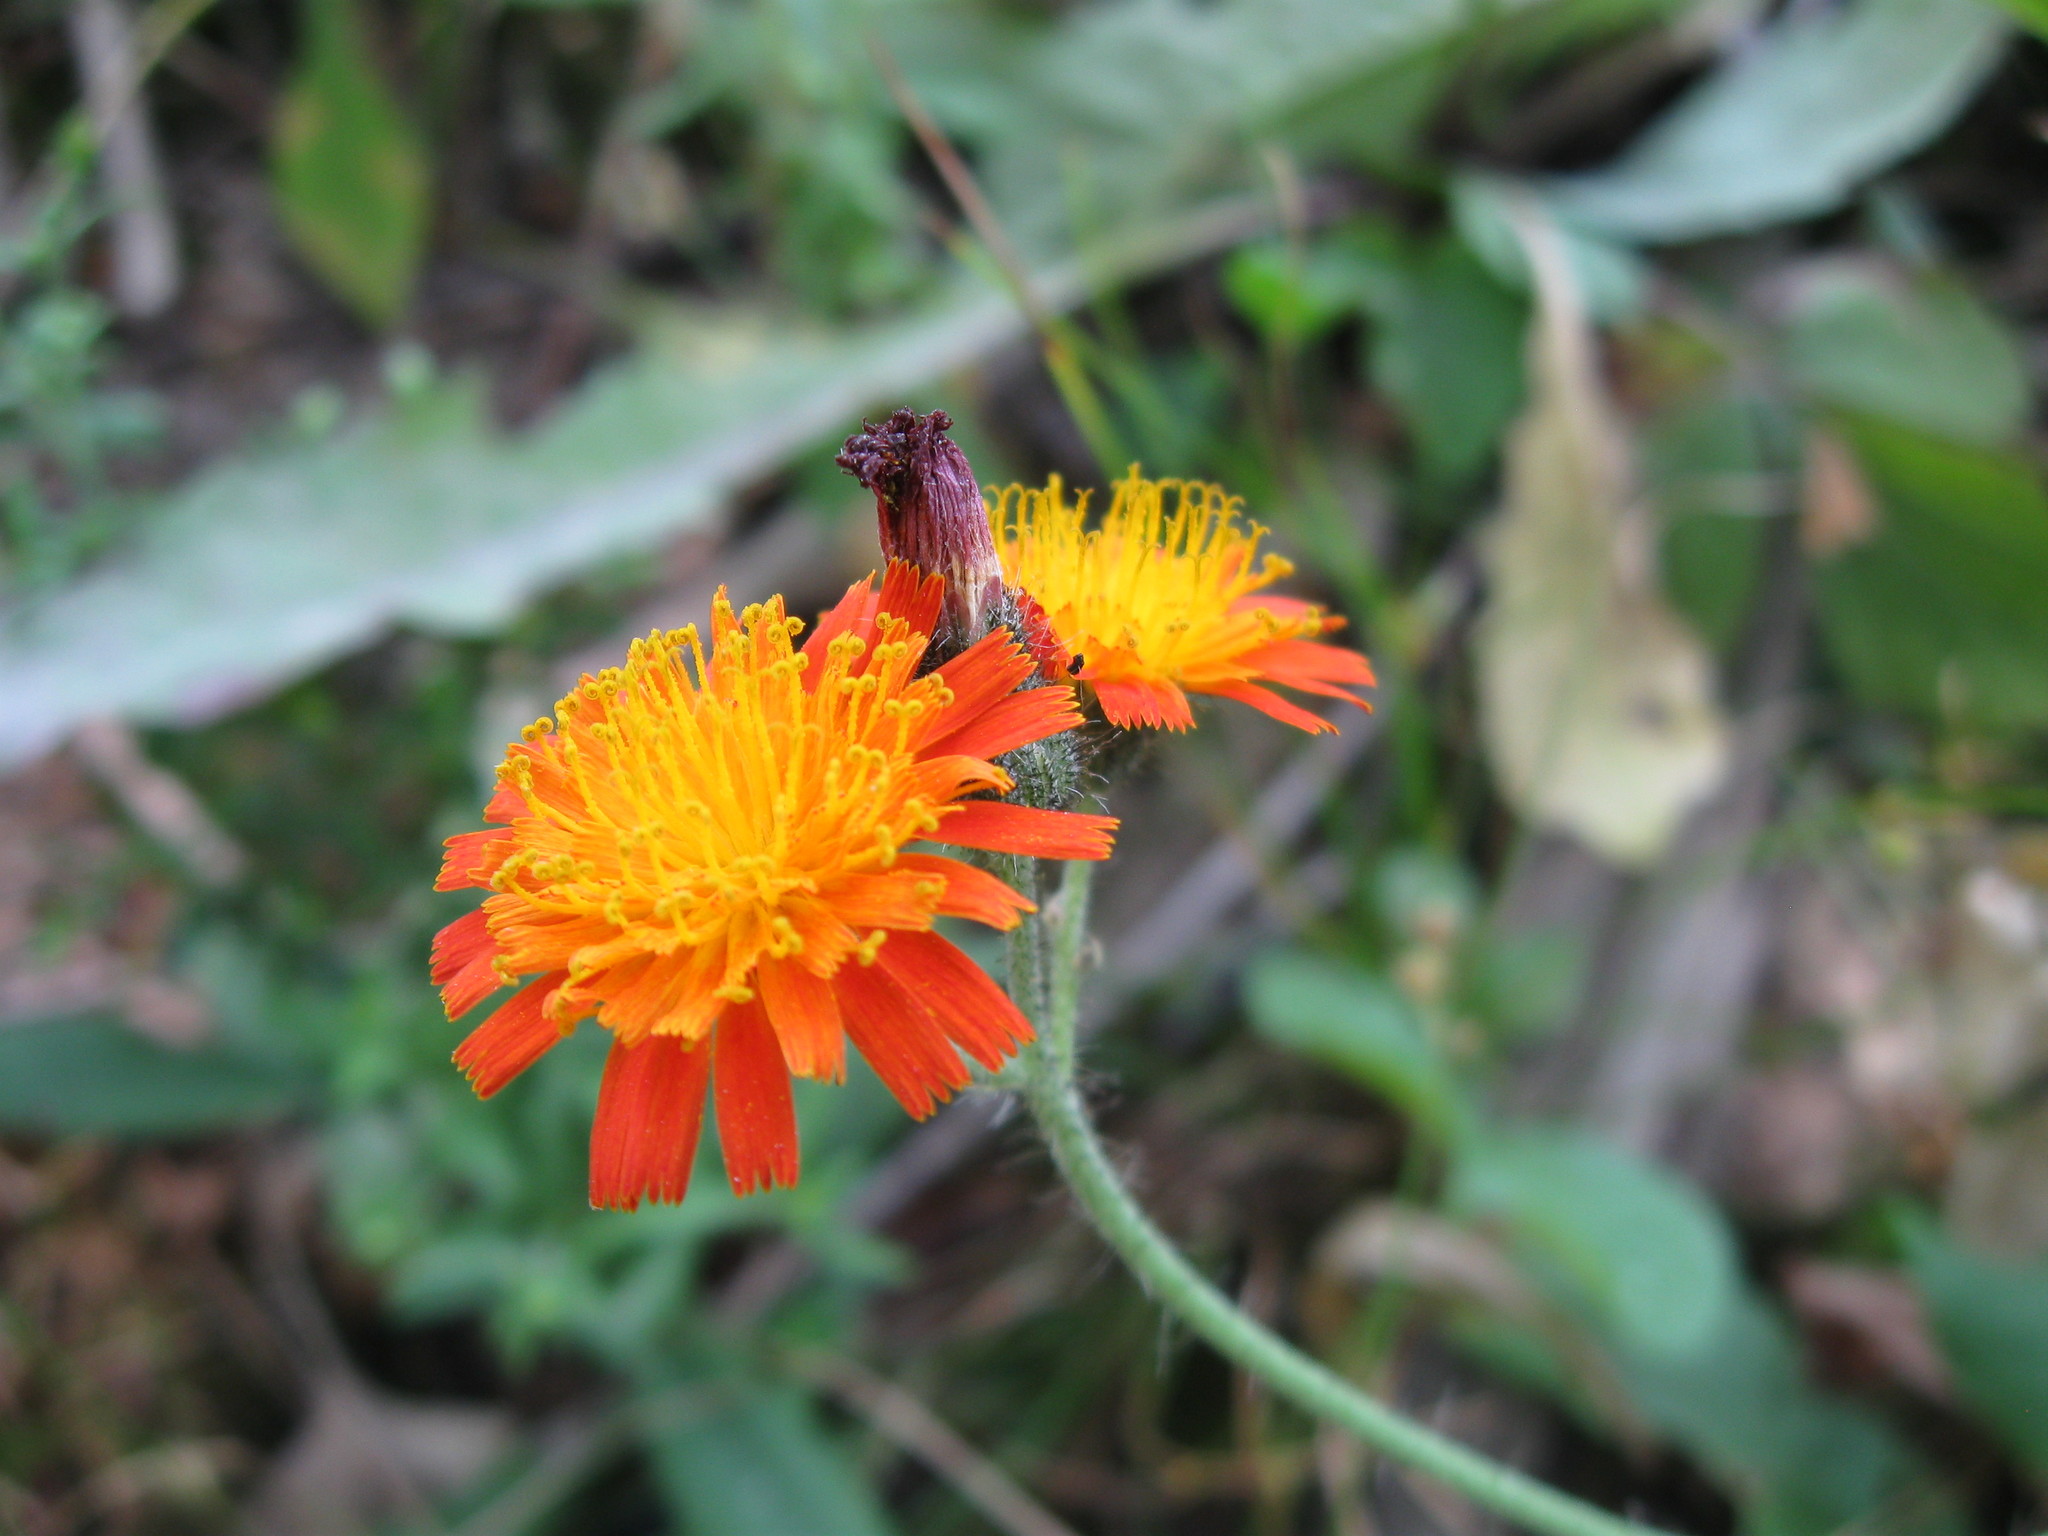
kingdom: Plantae
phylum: Tracheophyta
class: Magnoliopsida
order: Asterales
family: Asteraceae
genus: Pilosella
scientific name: Pilosella aurantiaca
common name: Fox-and-cubs
